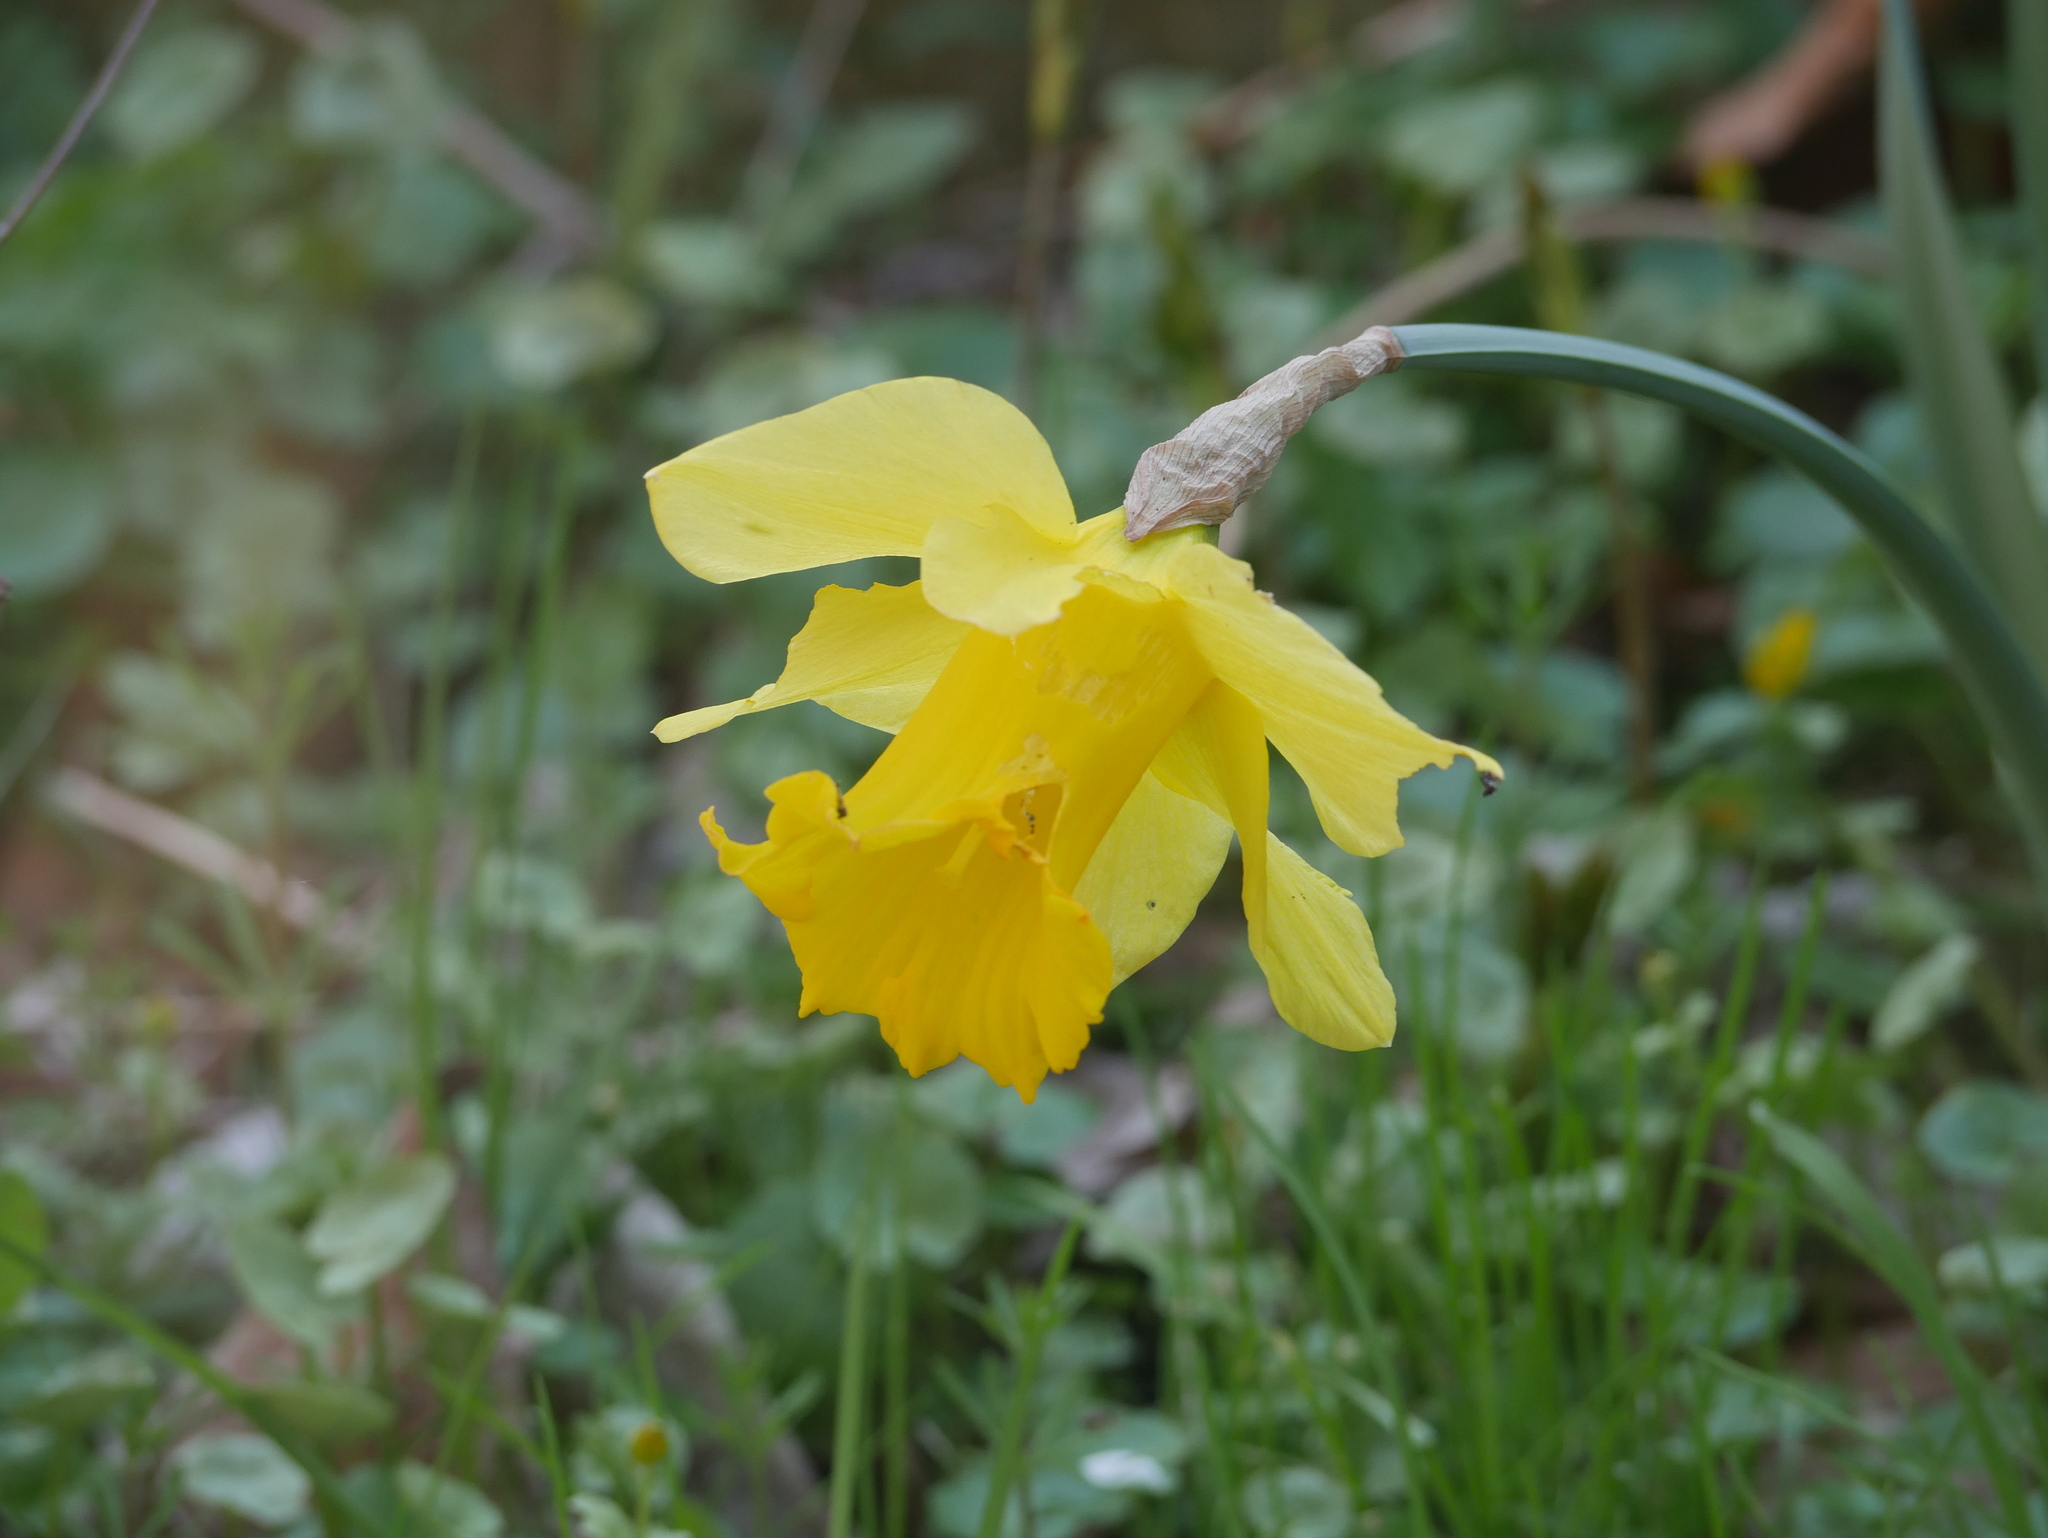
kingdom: Plantae
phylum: Tracheophyta
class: Liliopsida
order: Asparagales
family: Amaryllidaceae
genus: Narcissus
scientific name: Narcissus pseudonarcissus
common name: Daffodil
